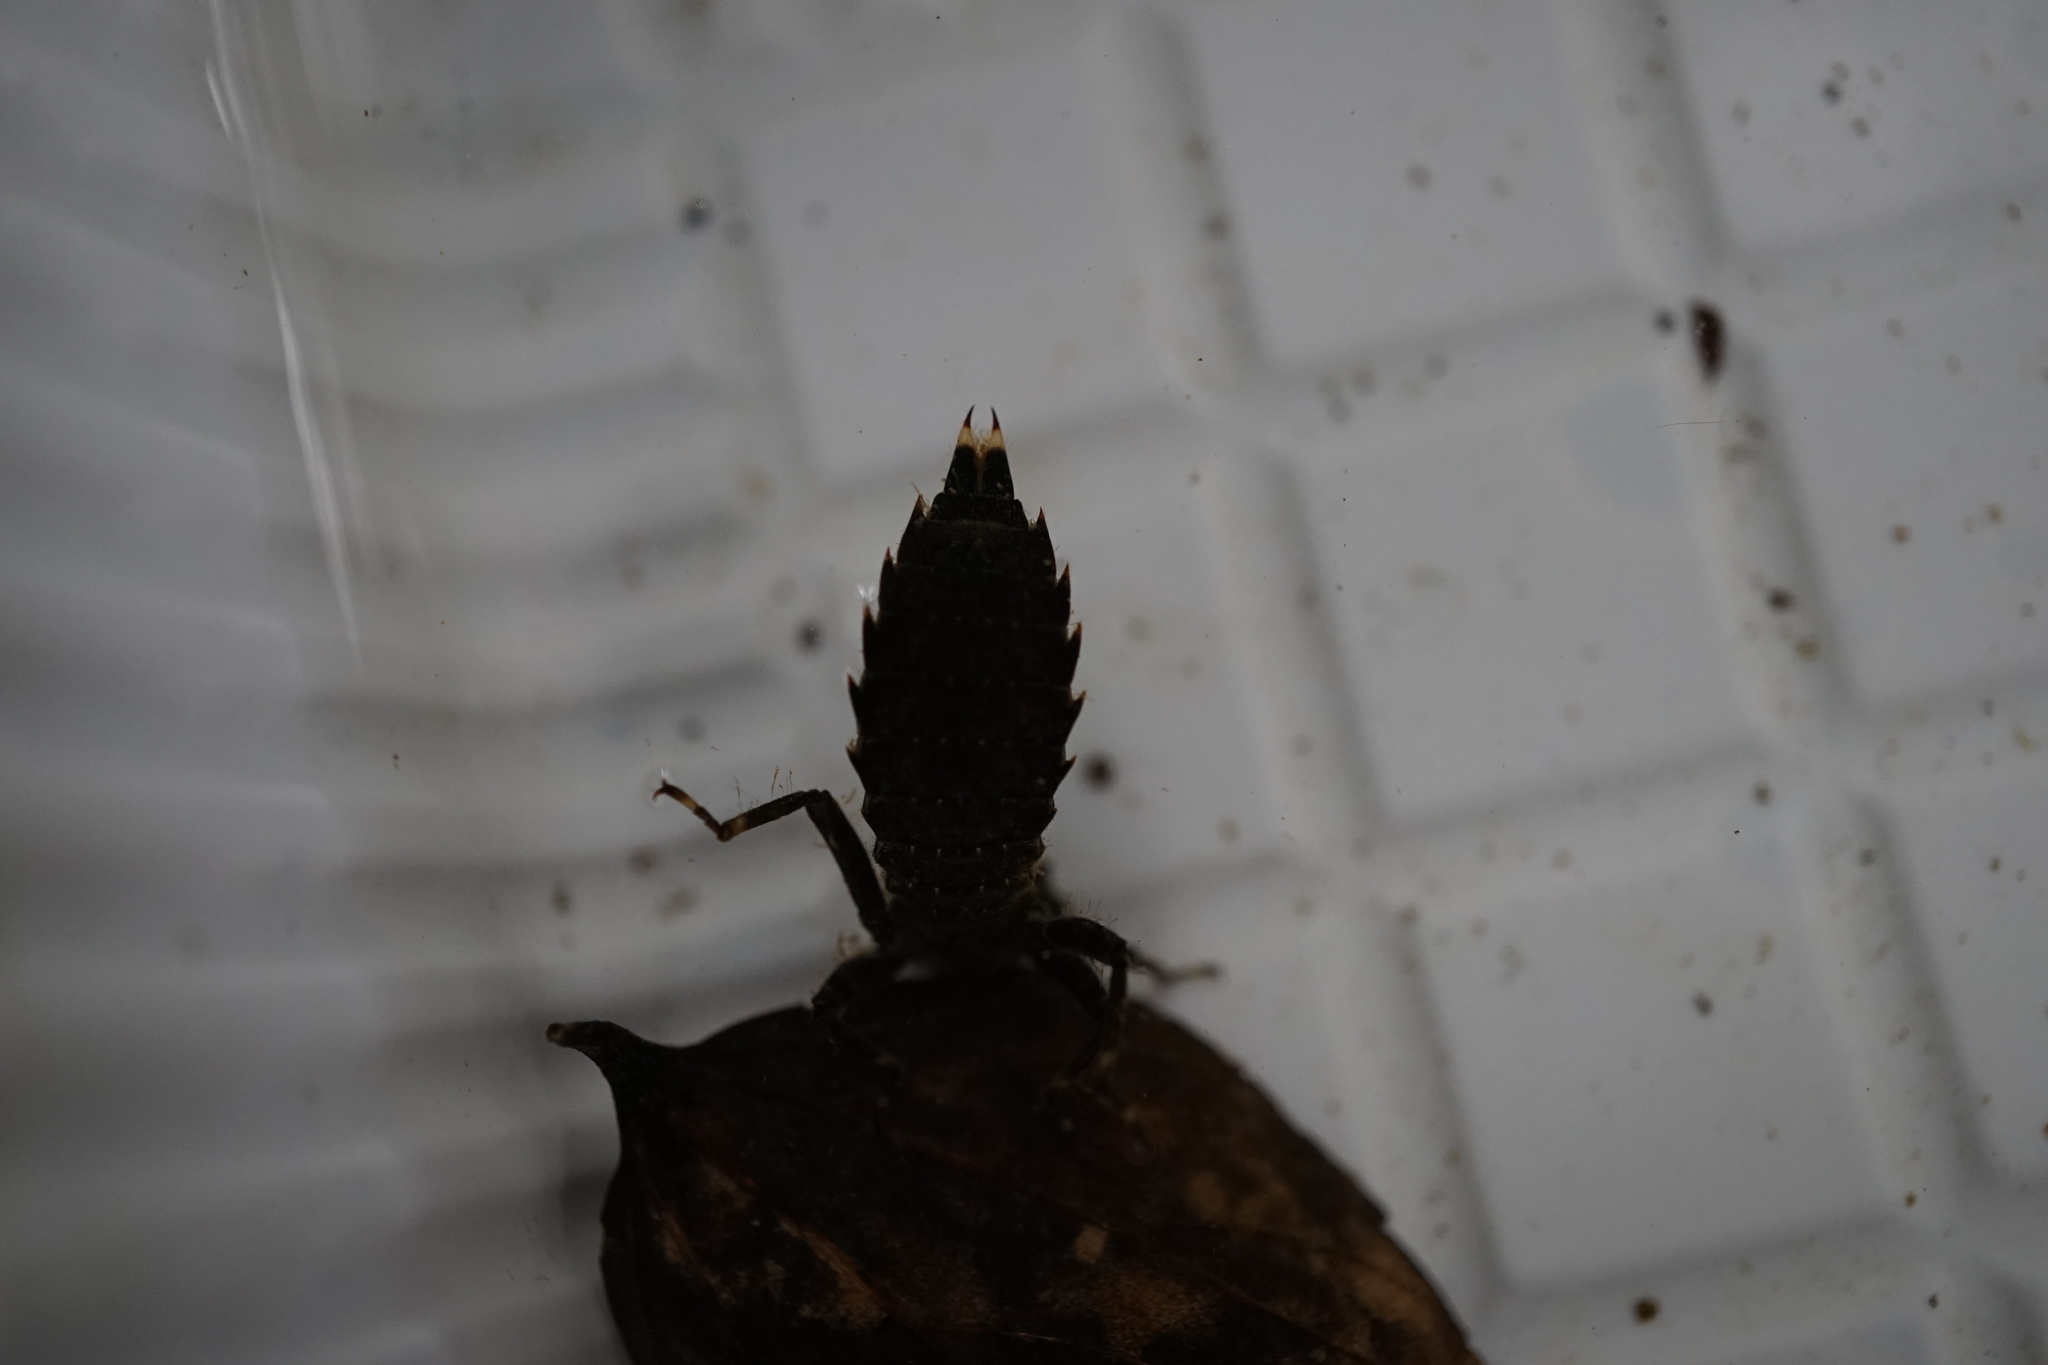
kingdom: Animalia
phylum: Arthropoda
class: Insecta
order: Odonata
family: Aeshnidae
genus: Boyeria
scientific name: Boyeria maclachlani
